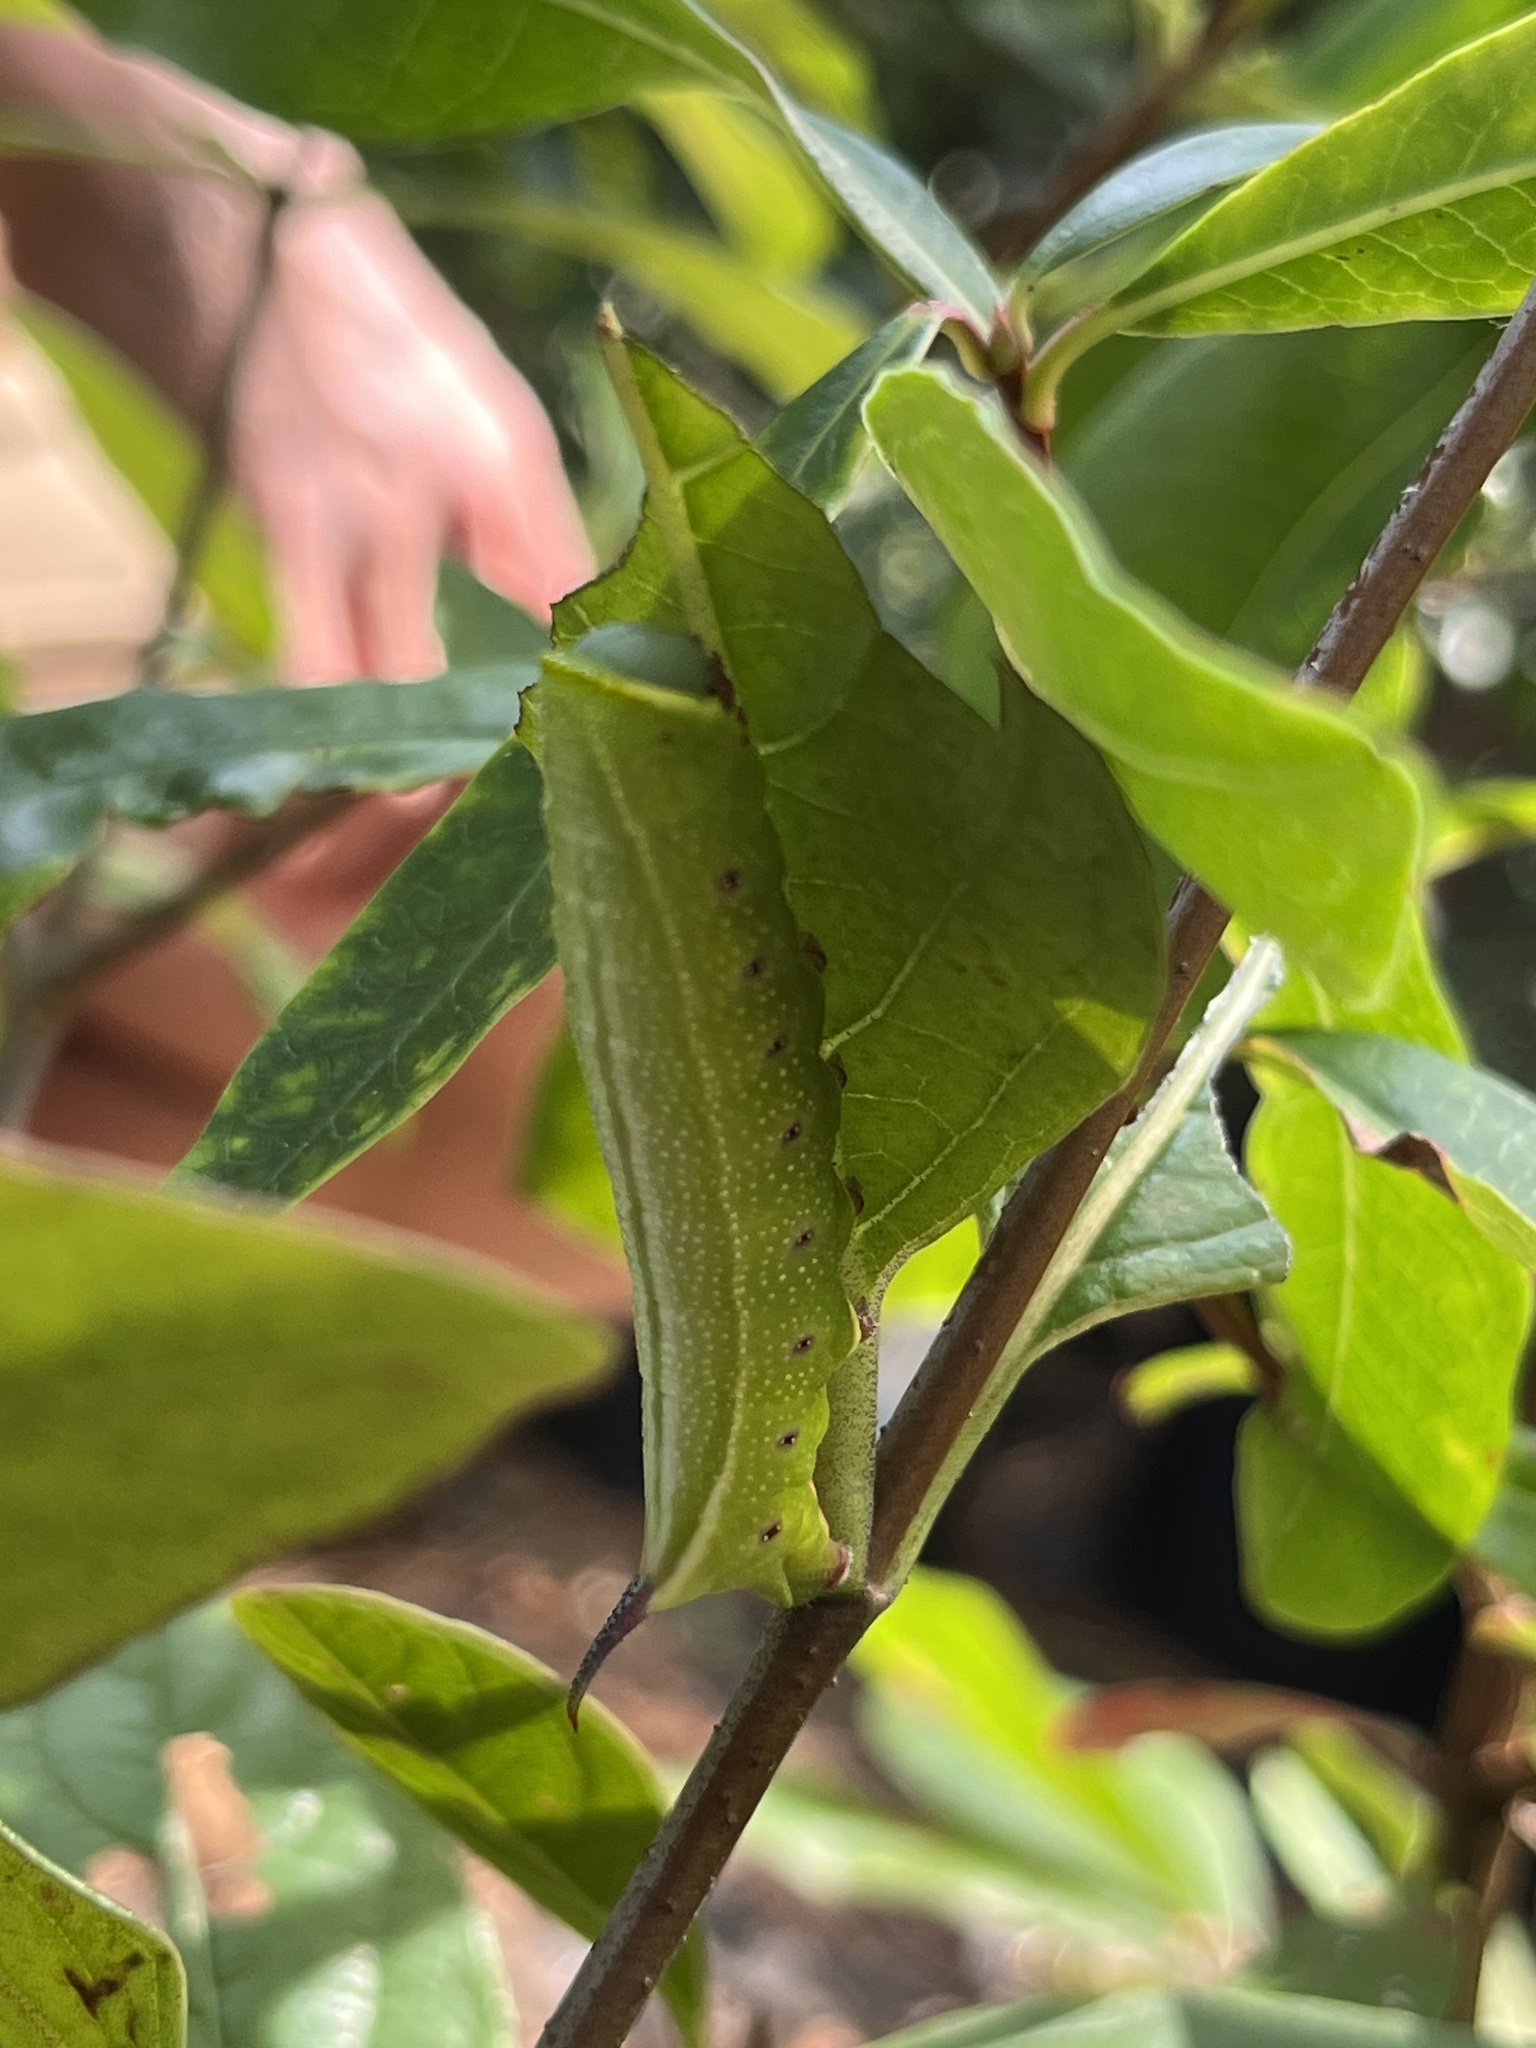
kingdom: Animalia
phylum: Arthropoda
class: Insecta
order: Lepidoptera
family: Sphingidae
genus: Hemaris
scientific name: Hemaris thysbe
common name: Common clear-wing
